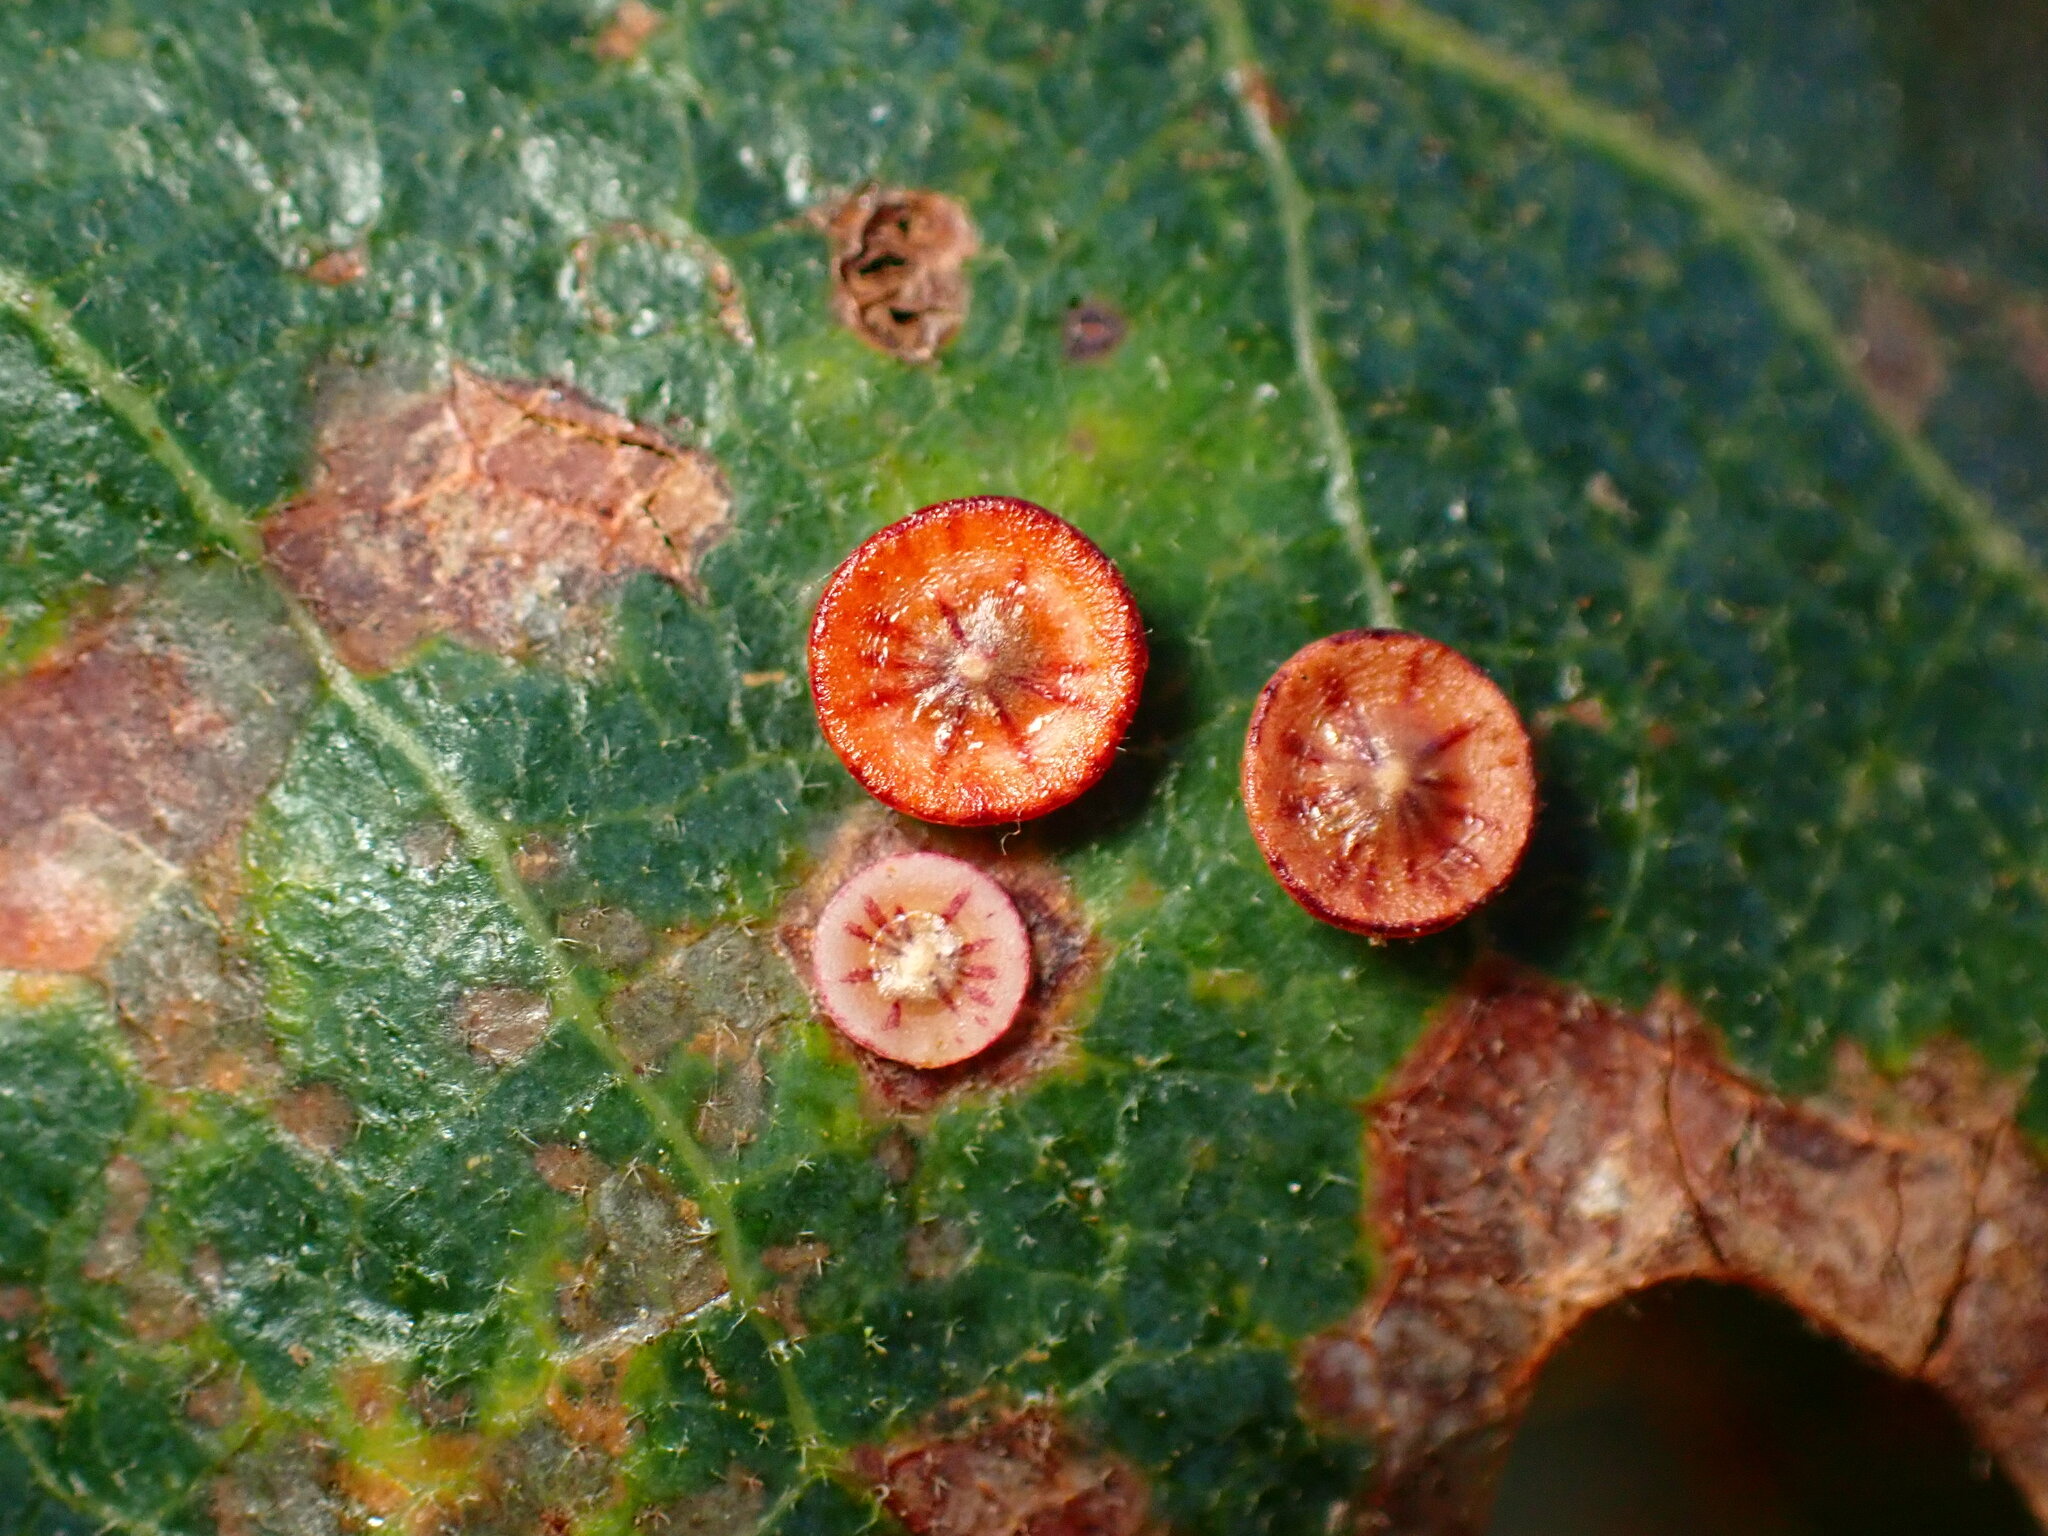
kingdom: Animalia
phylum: Arthropoda
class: Insecta
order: Hymenoptera
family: Cynipidae
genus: Andricus
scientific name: Andricus
